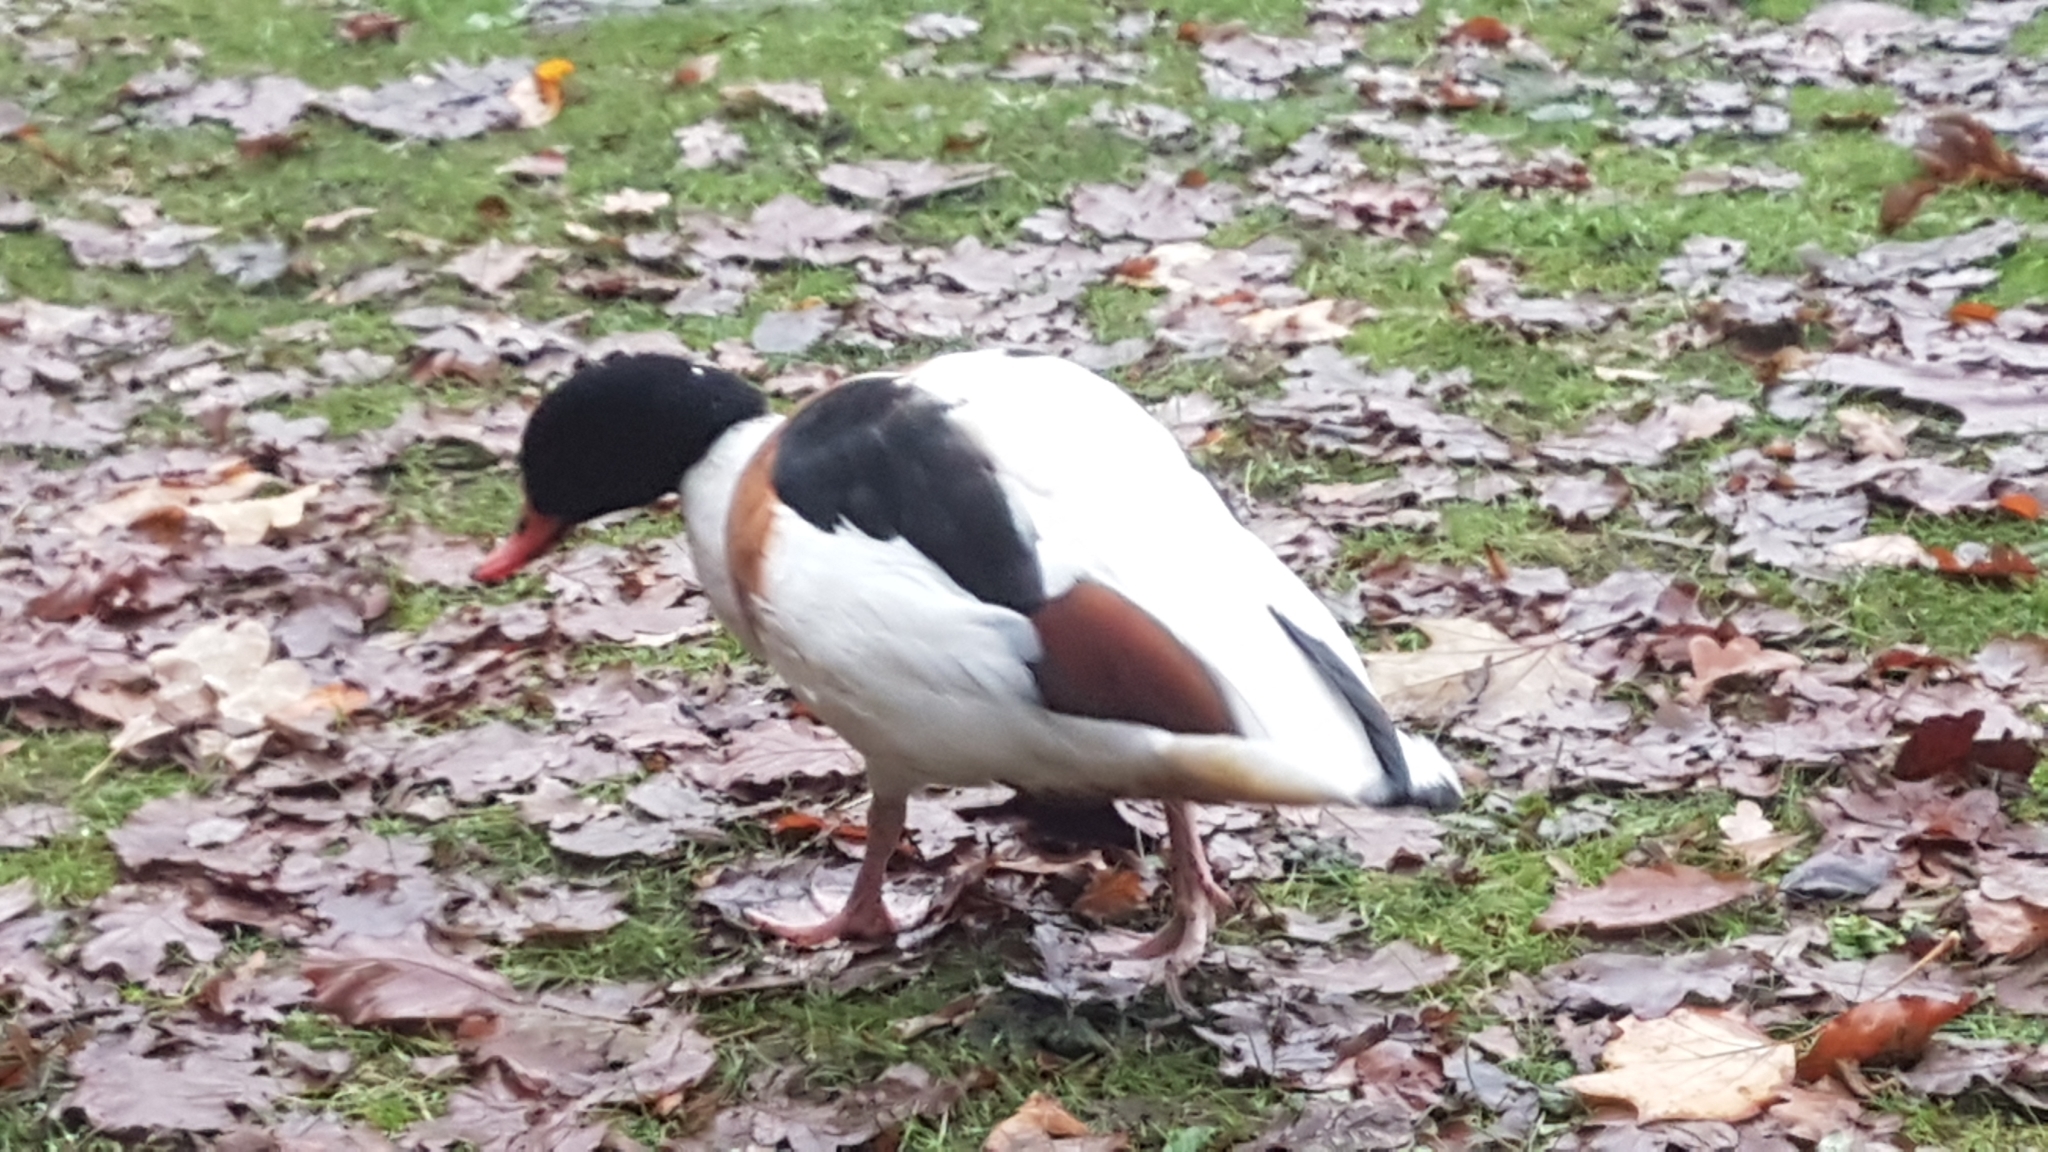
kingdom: Animalia
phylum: Chordata
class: Aves
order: Anseriformes
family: Anatidae
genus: Tadorna
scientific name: Tadorna tadorna
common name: Common shelduck
